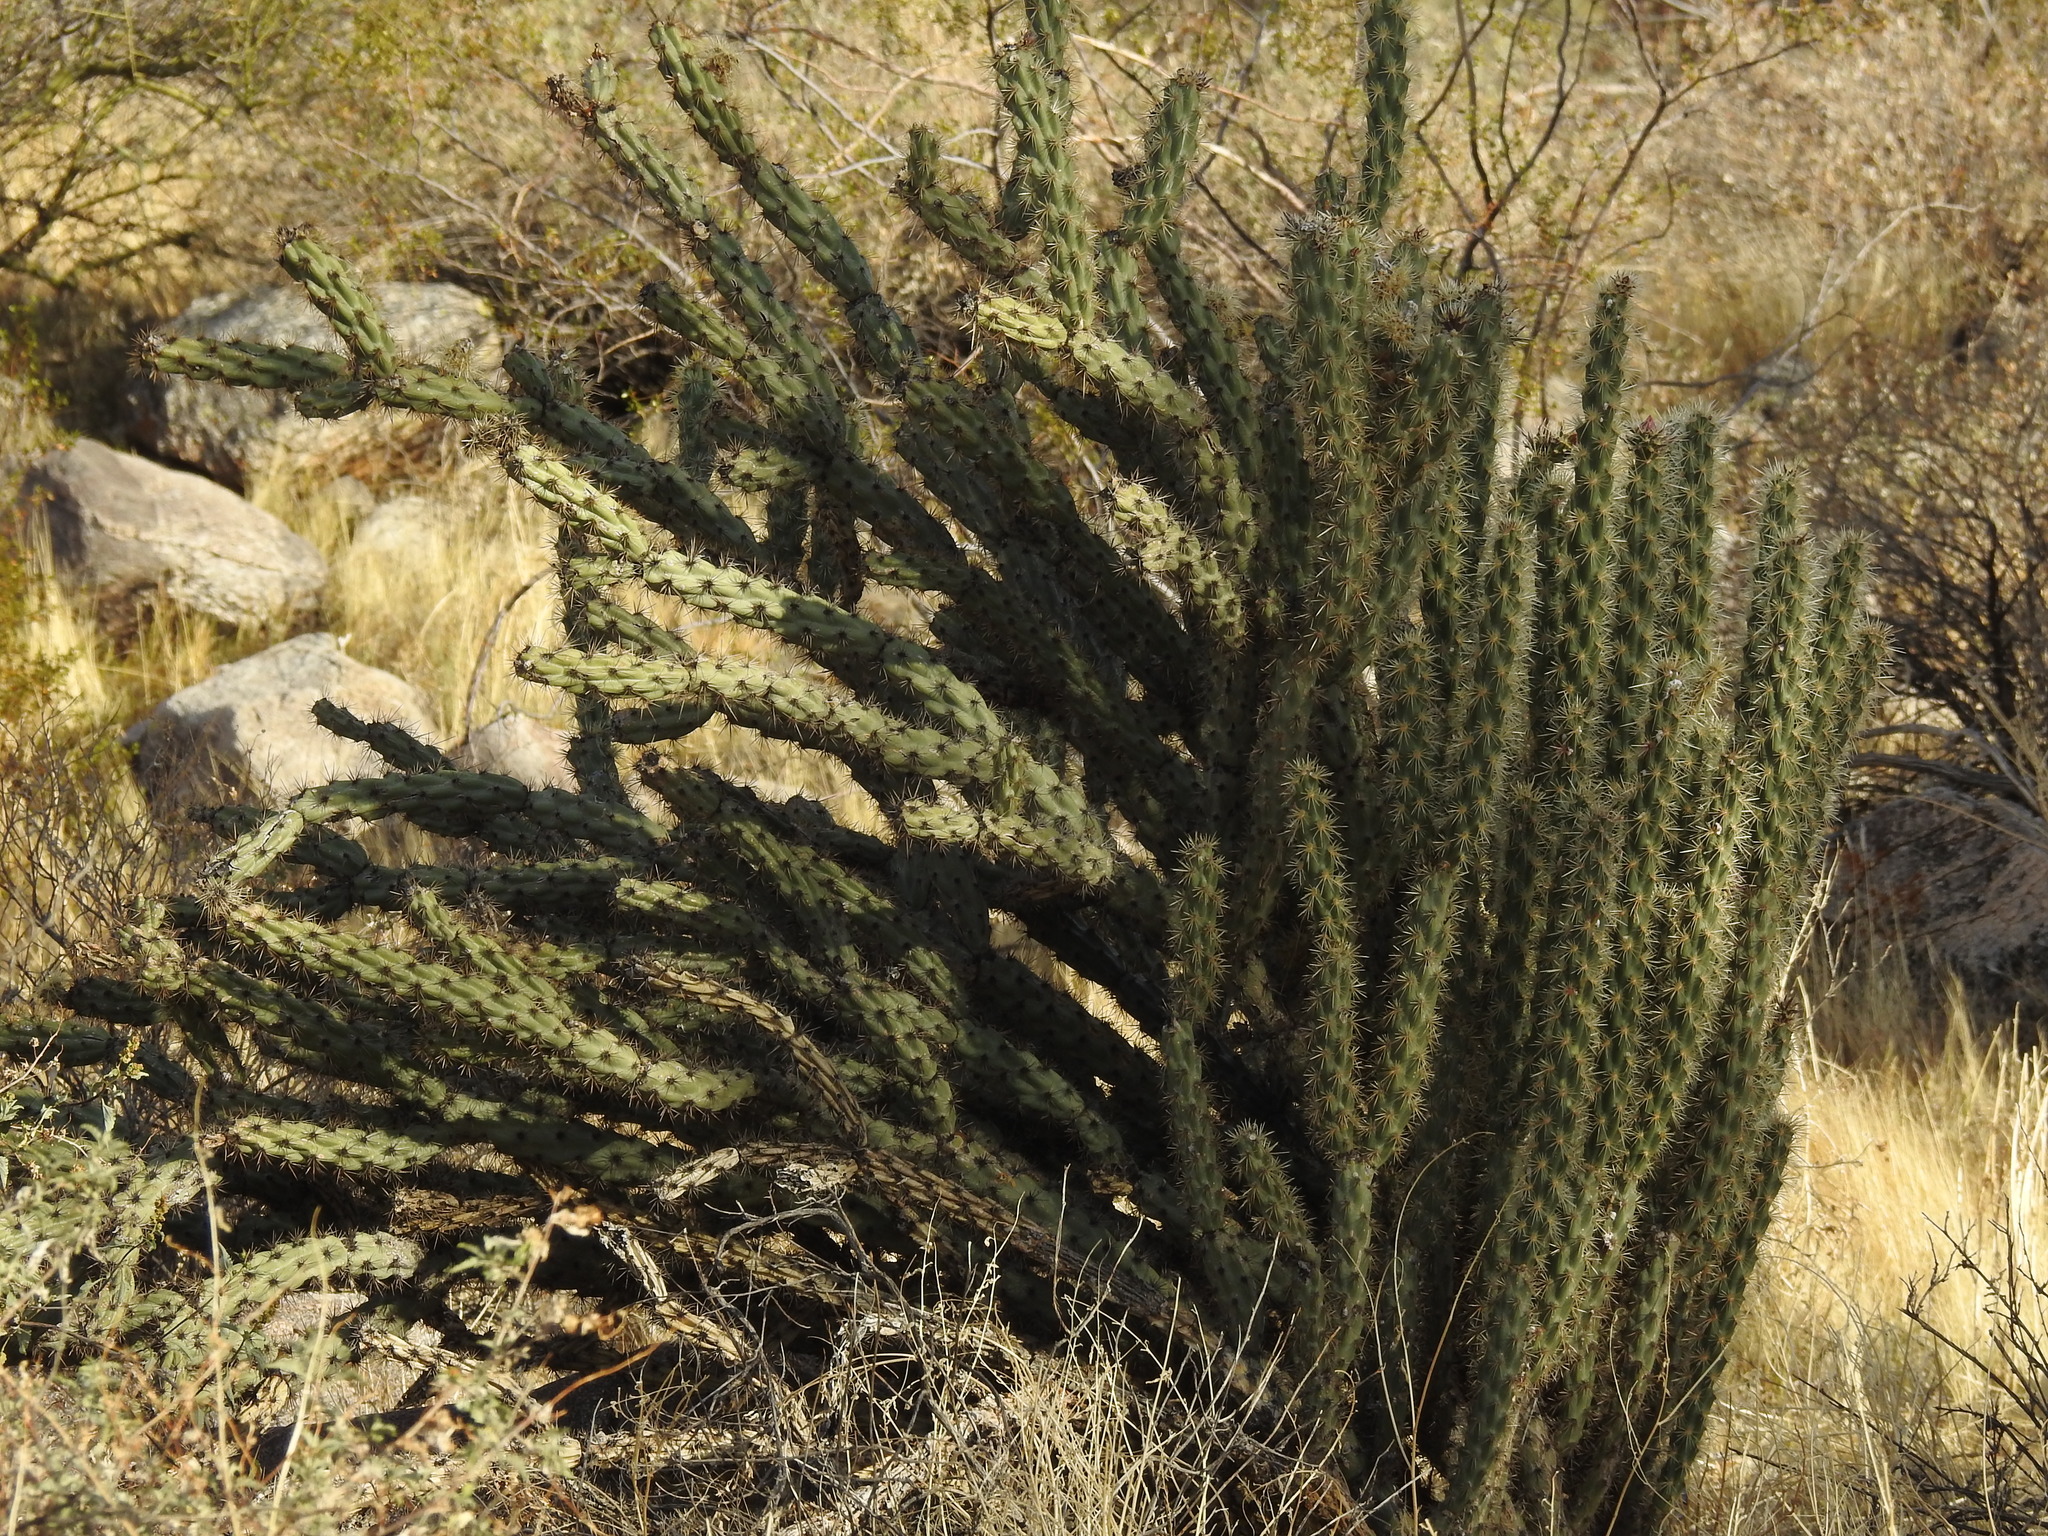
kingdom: Plantae
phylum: Tracheophyta
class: Magnoliopsida
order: Caryophyllales
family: Cactaceae
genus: Cylindropuntia
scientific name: Cylindropuntia acanthocarpa
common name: Buckhorn cholla
